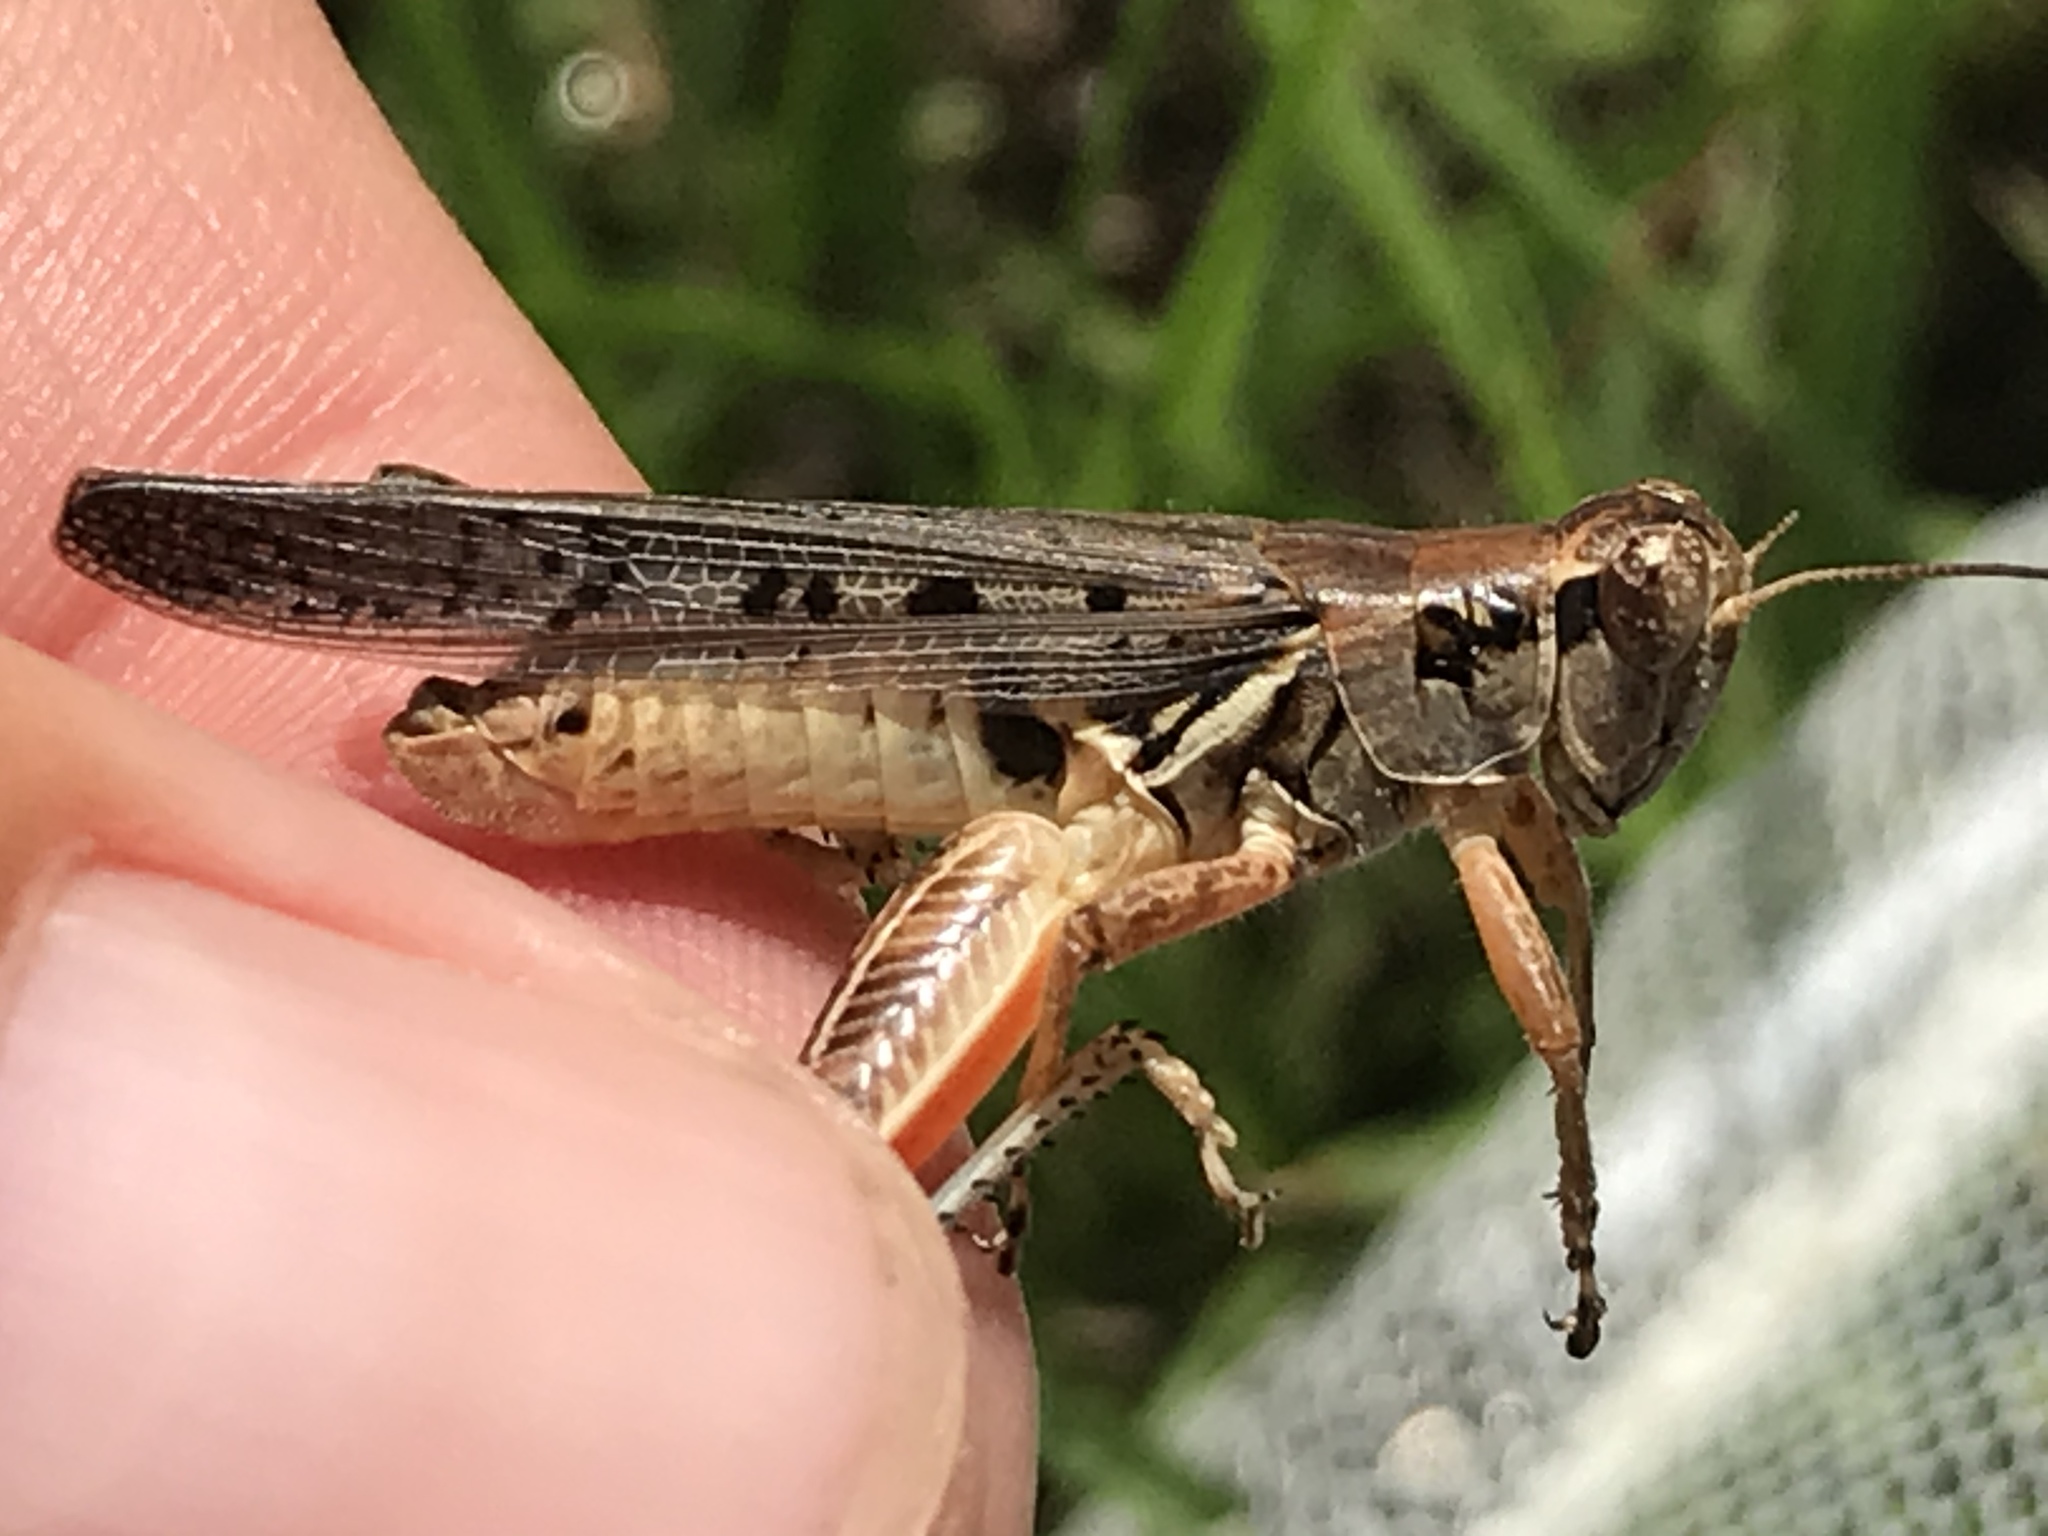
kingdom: Animalia
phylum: Arthropoda
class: Insecta
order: Orthoptera
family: Acrididae
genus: Melanoplus
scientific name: Melanoplus sanguinipes
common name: Migratory grasshopper
